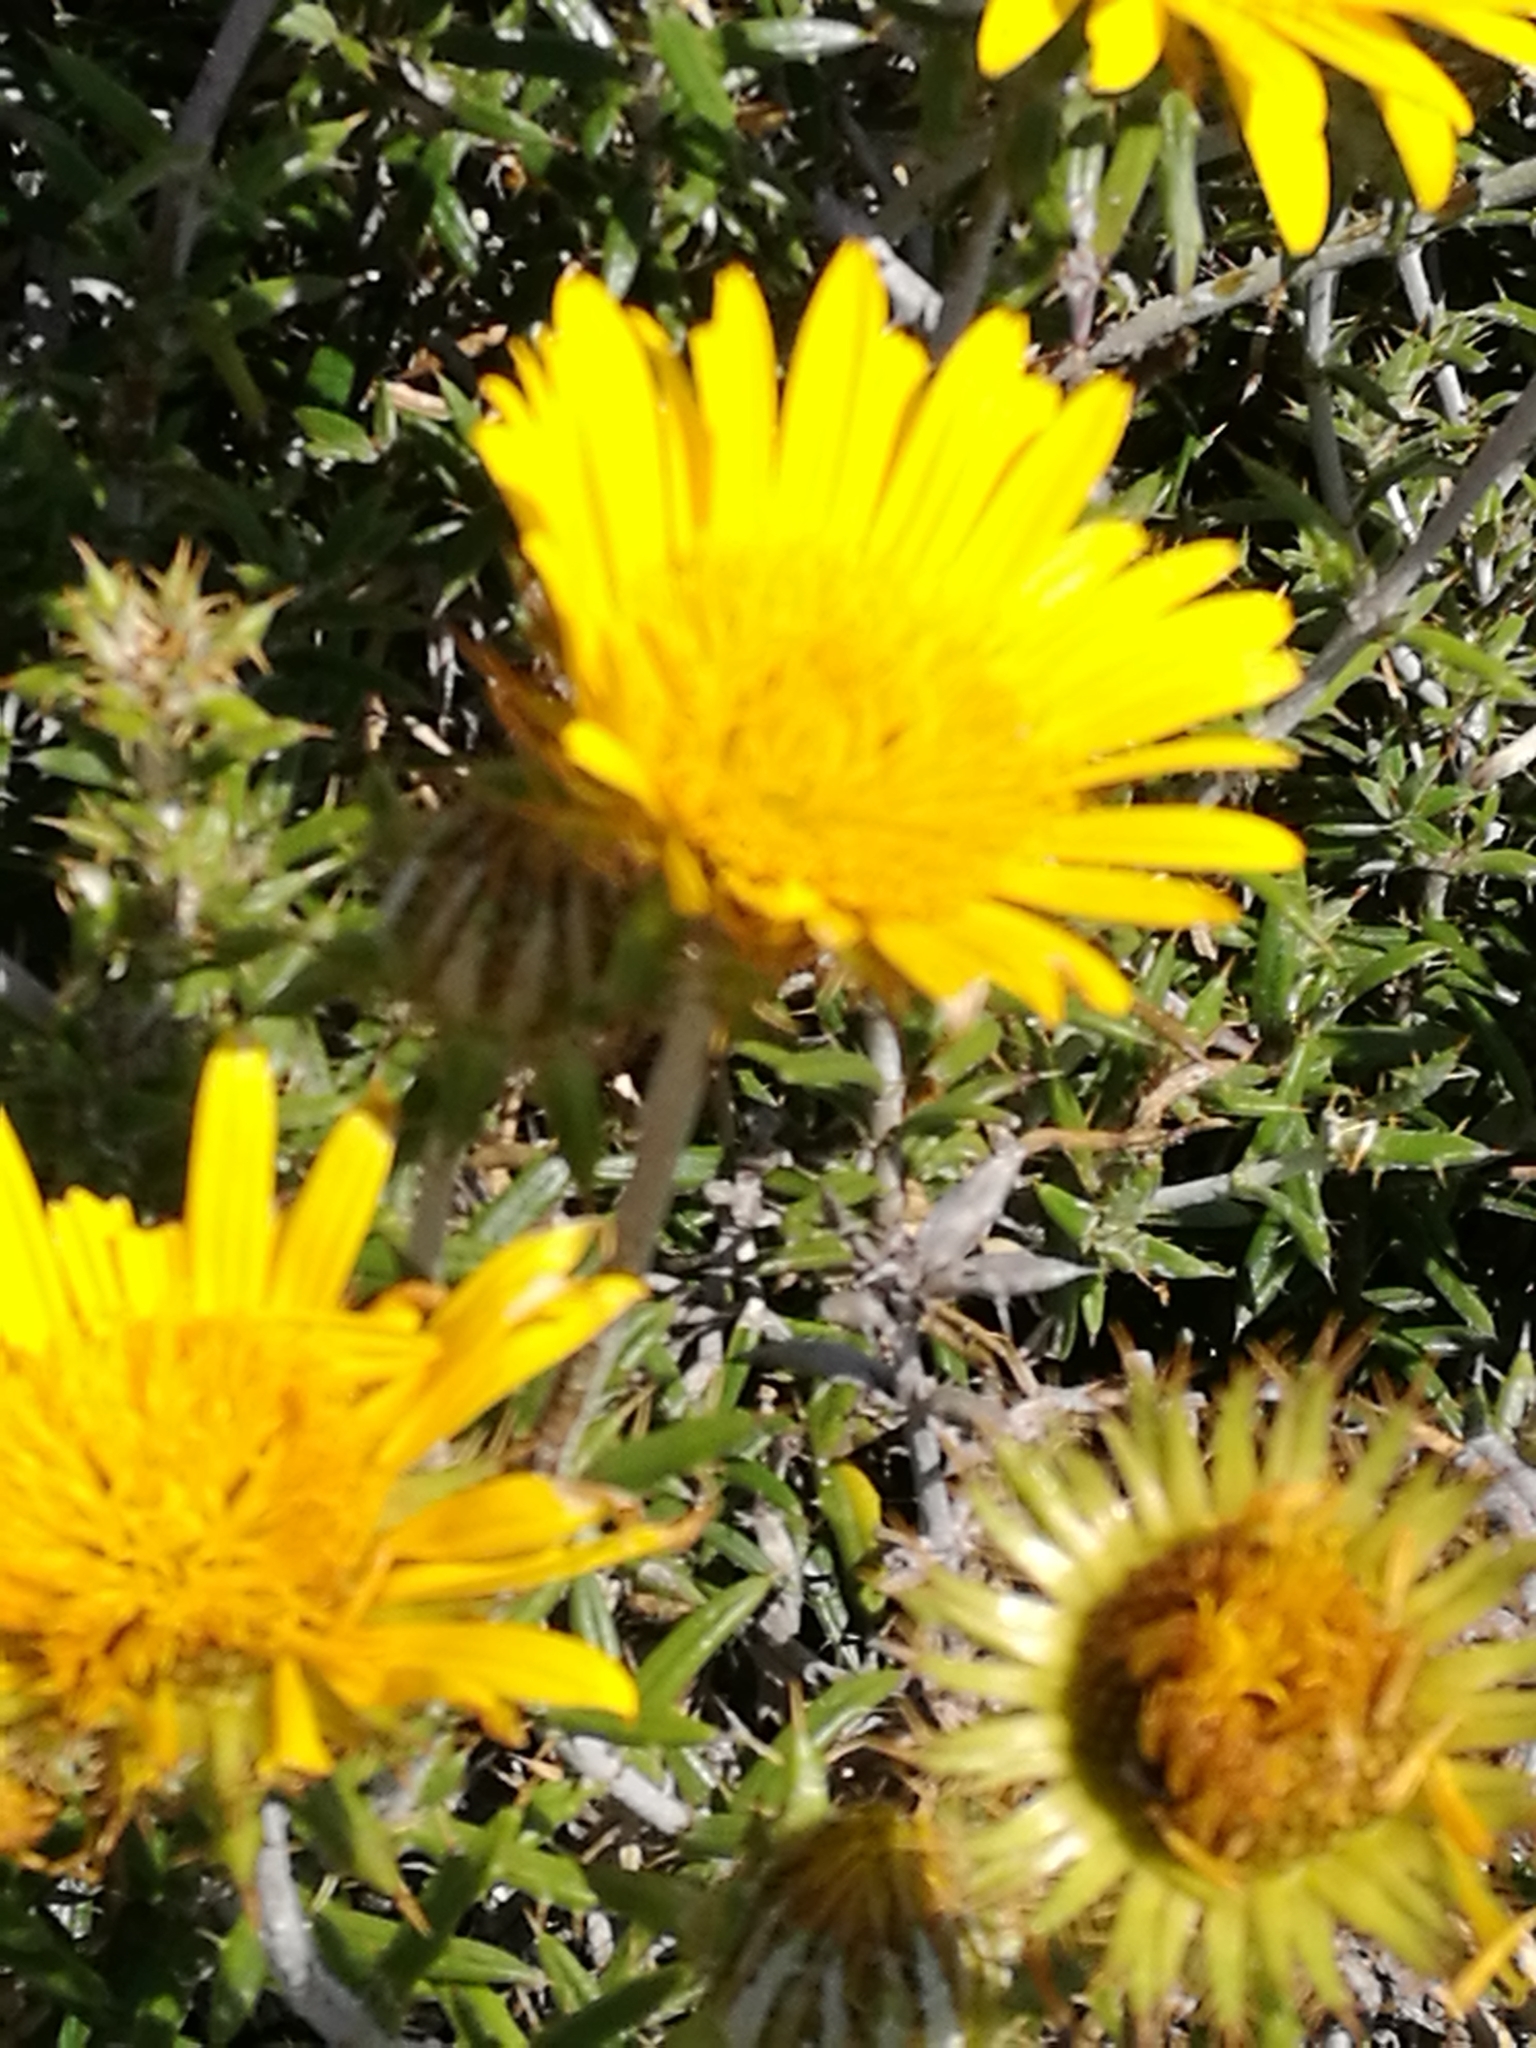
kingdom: Plantae
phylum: Tracheophyta
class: Magnoliopsida
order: Asterales
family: Asteraceae
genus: Berkheya
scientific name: Berkheya angustifolia
